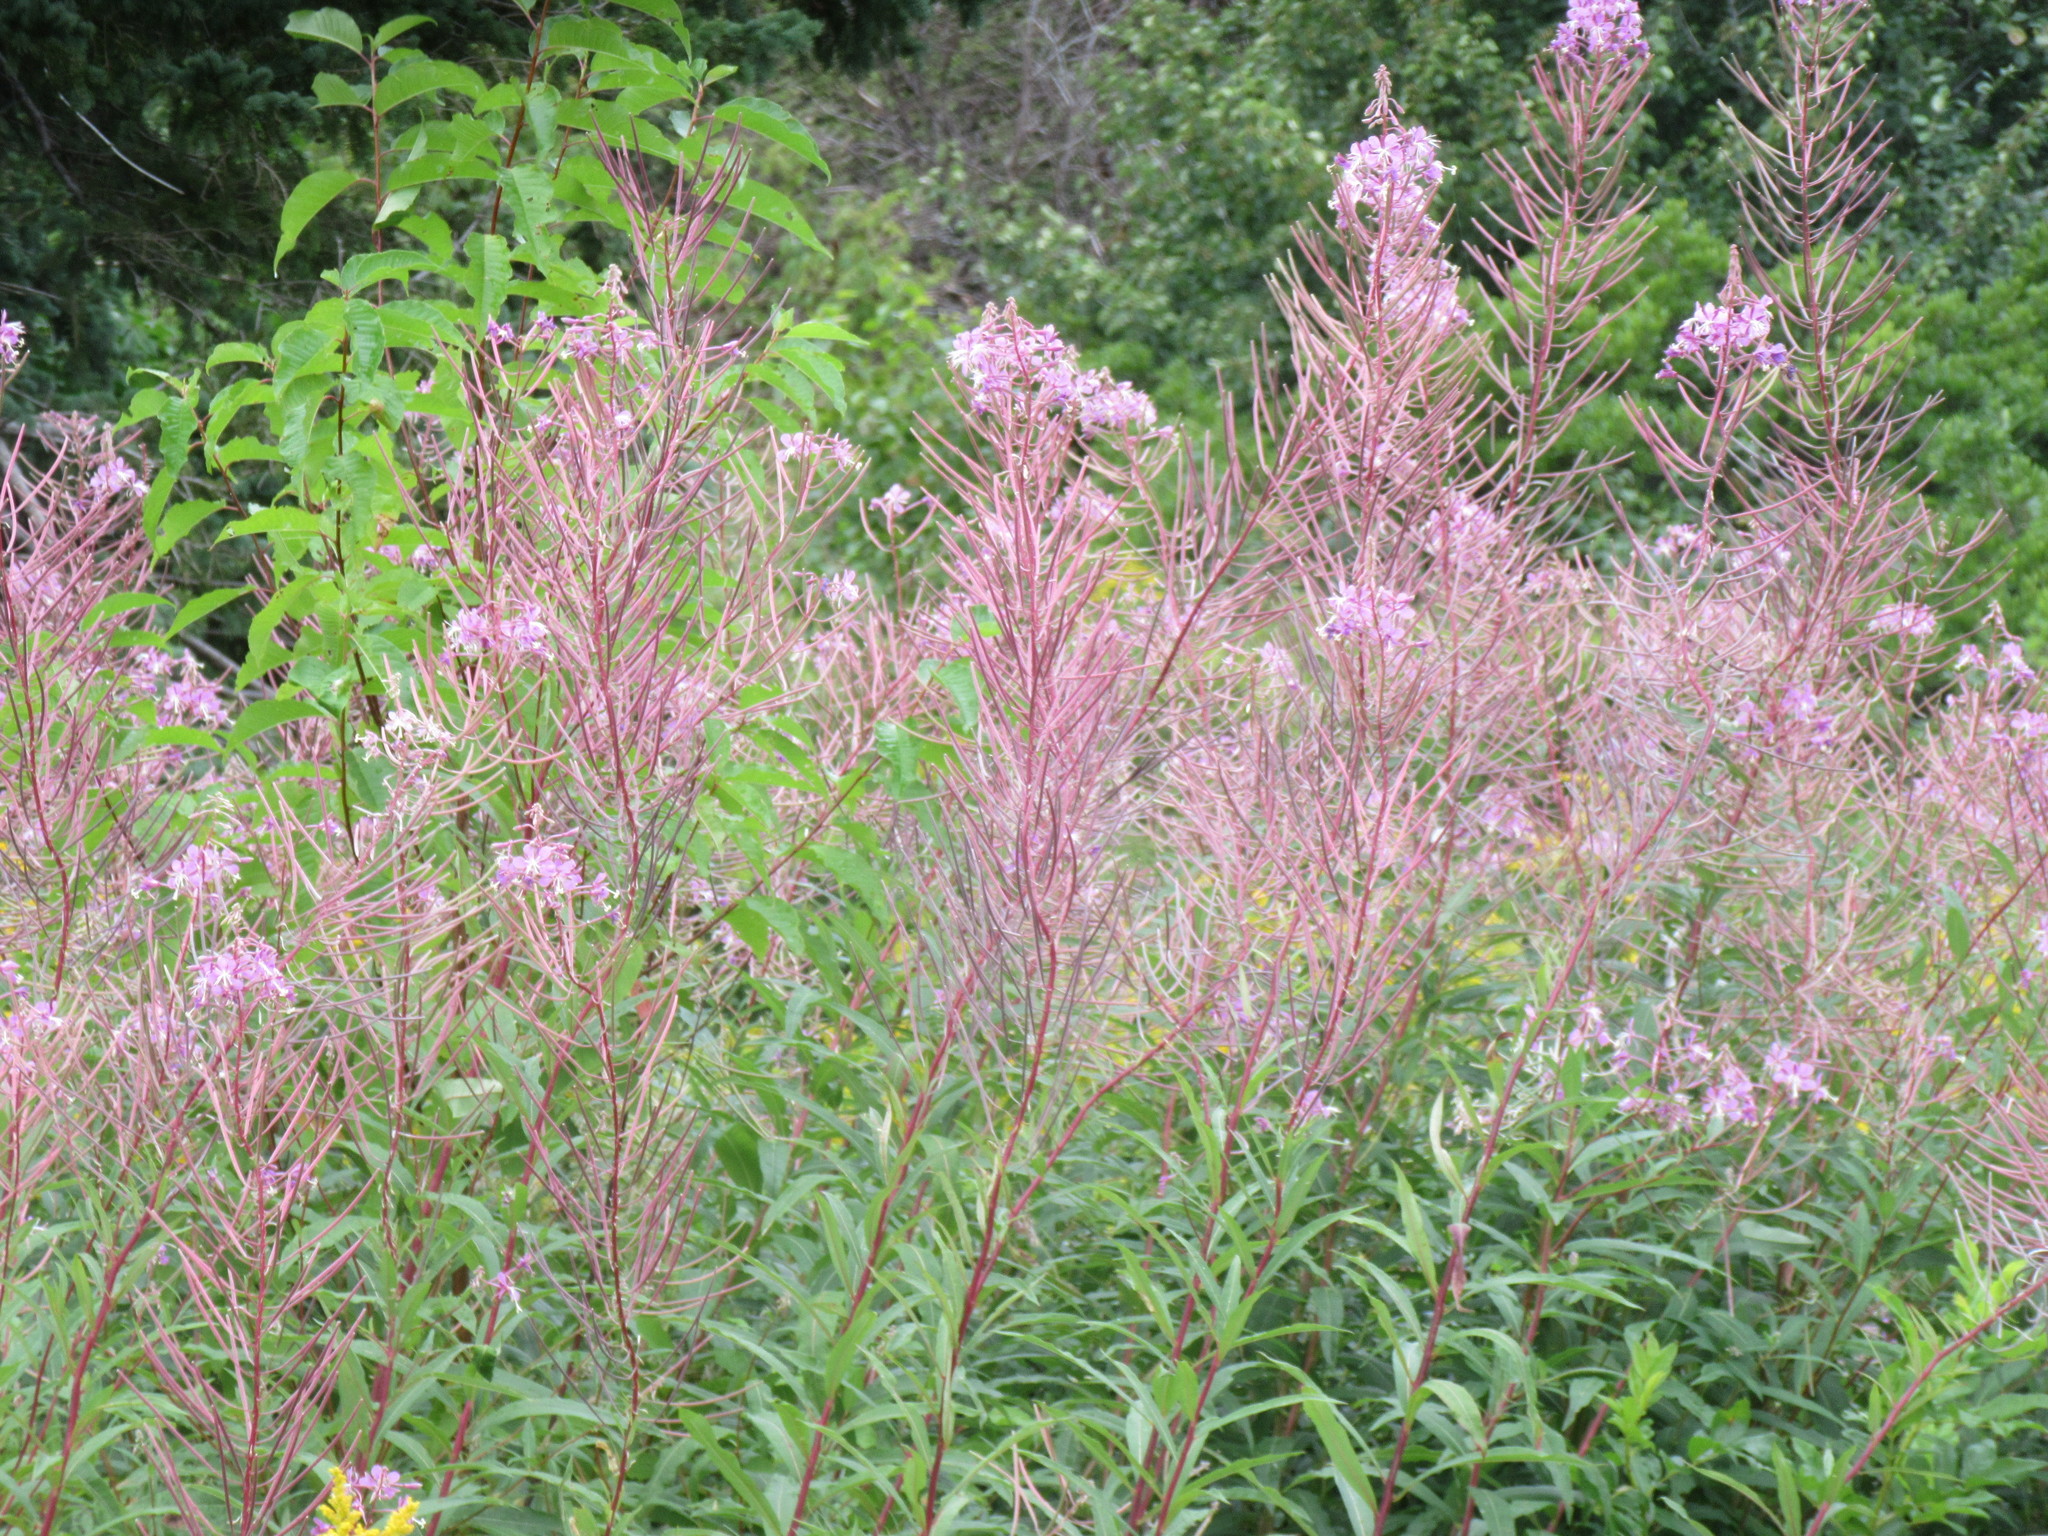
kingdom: Plantae
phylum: Tracheophyta
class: Magnoliopsida
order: Myrtales
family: Onagraceae
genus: Chamaenerion
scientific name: Chamaenerion angustifolium
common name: Fireweed
